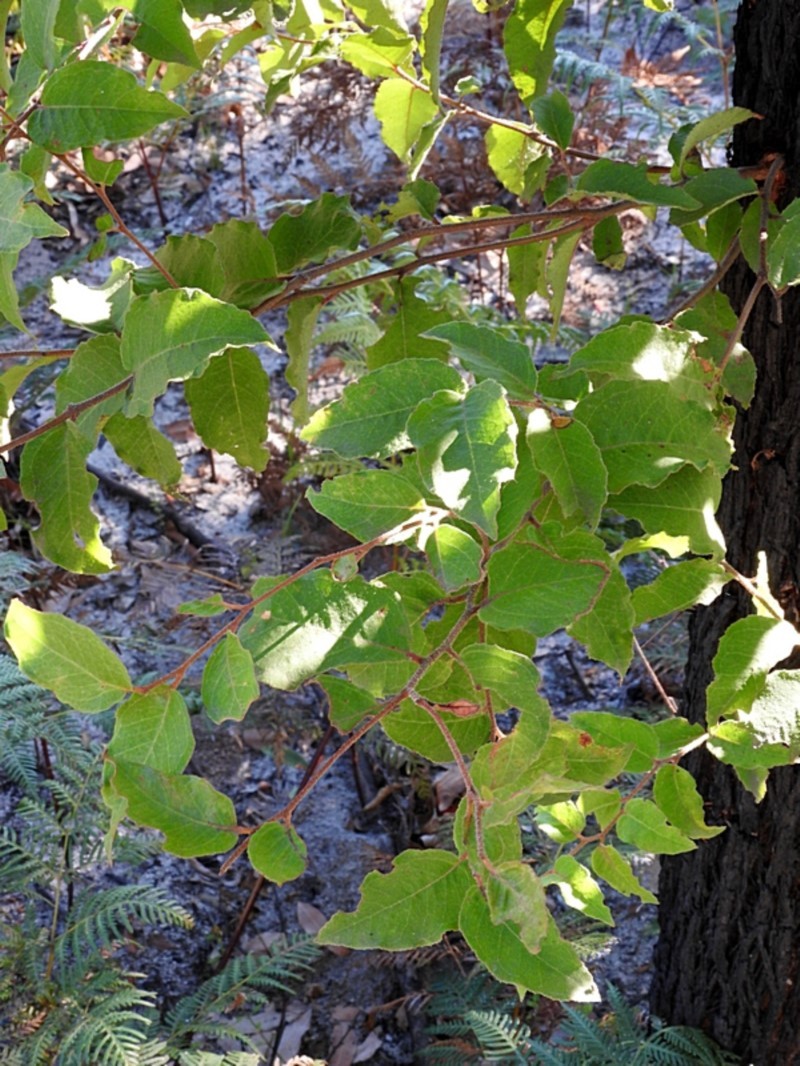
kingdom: Plantae
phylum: Tracheophyta
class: Magnoliopsida
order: Myrtales
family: Myrtaceae
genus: Eucalyptus
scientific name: Eucalyptus globoidea
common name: White-stringybark
